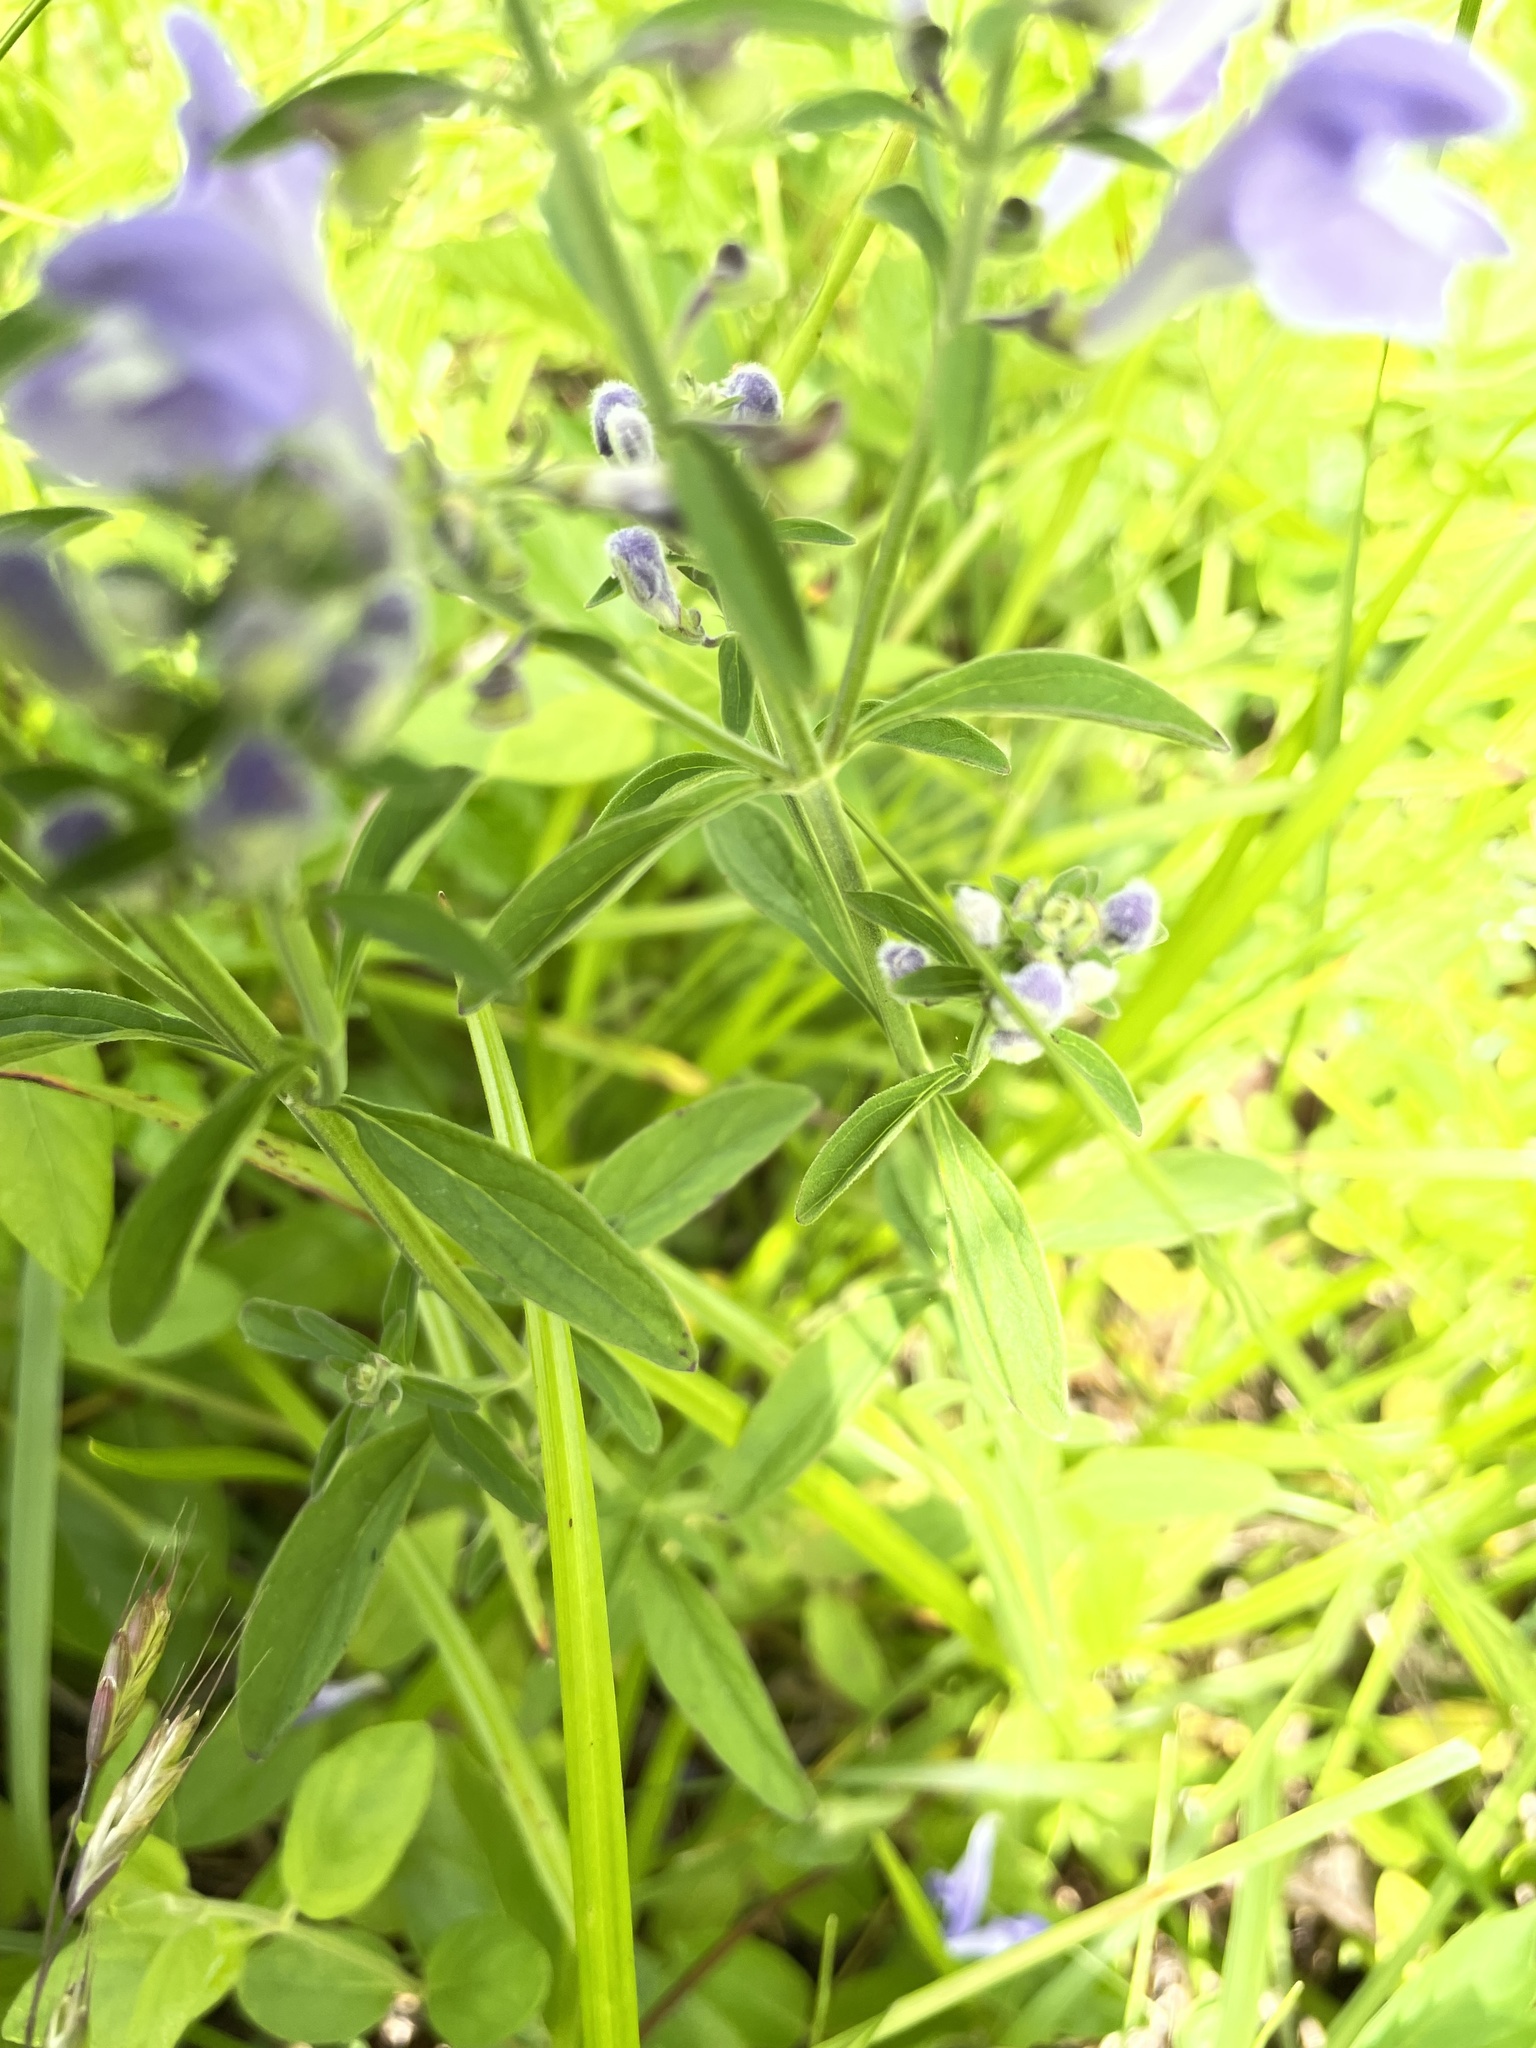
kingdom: Plantae
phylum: Tracheophyta
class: Magnoliopsida
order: Lamiales
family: Lamiaceae
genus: Scutellaria
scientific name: Scutellaria integrifolia
